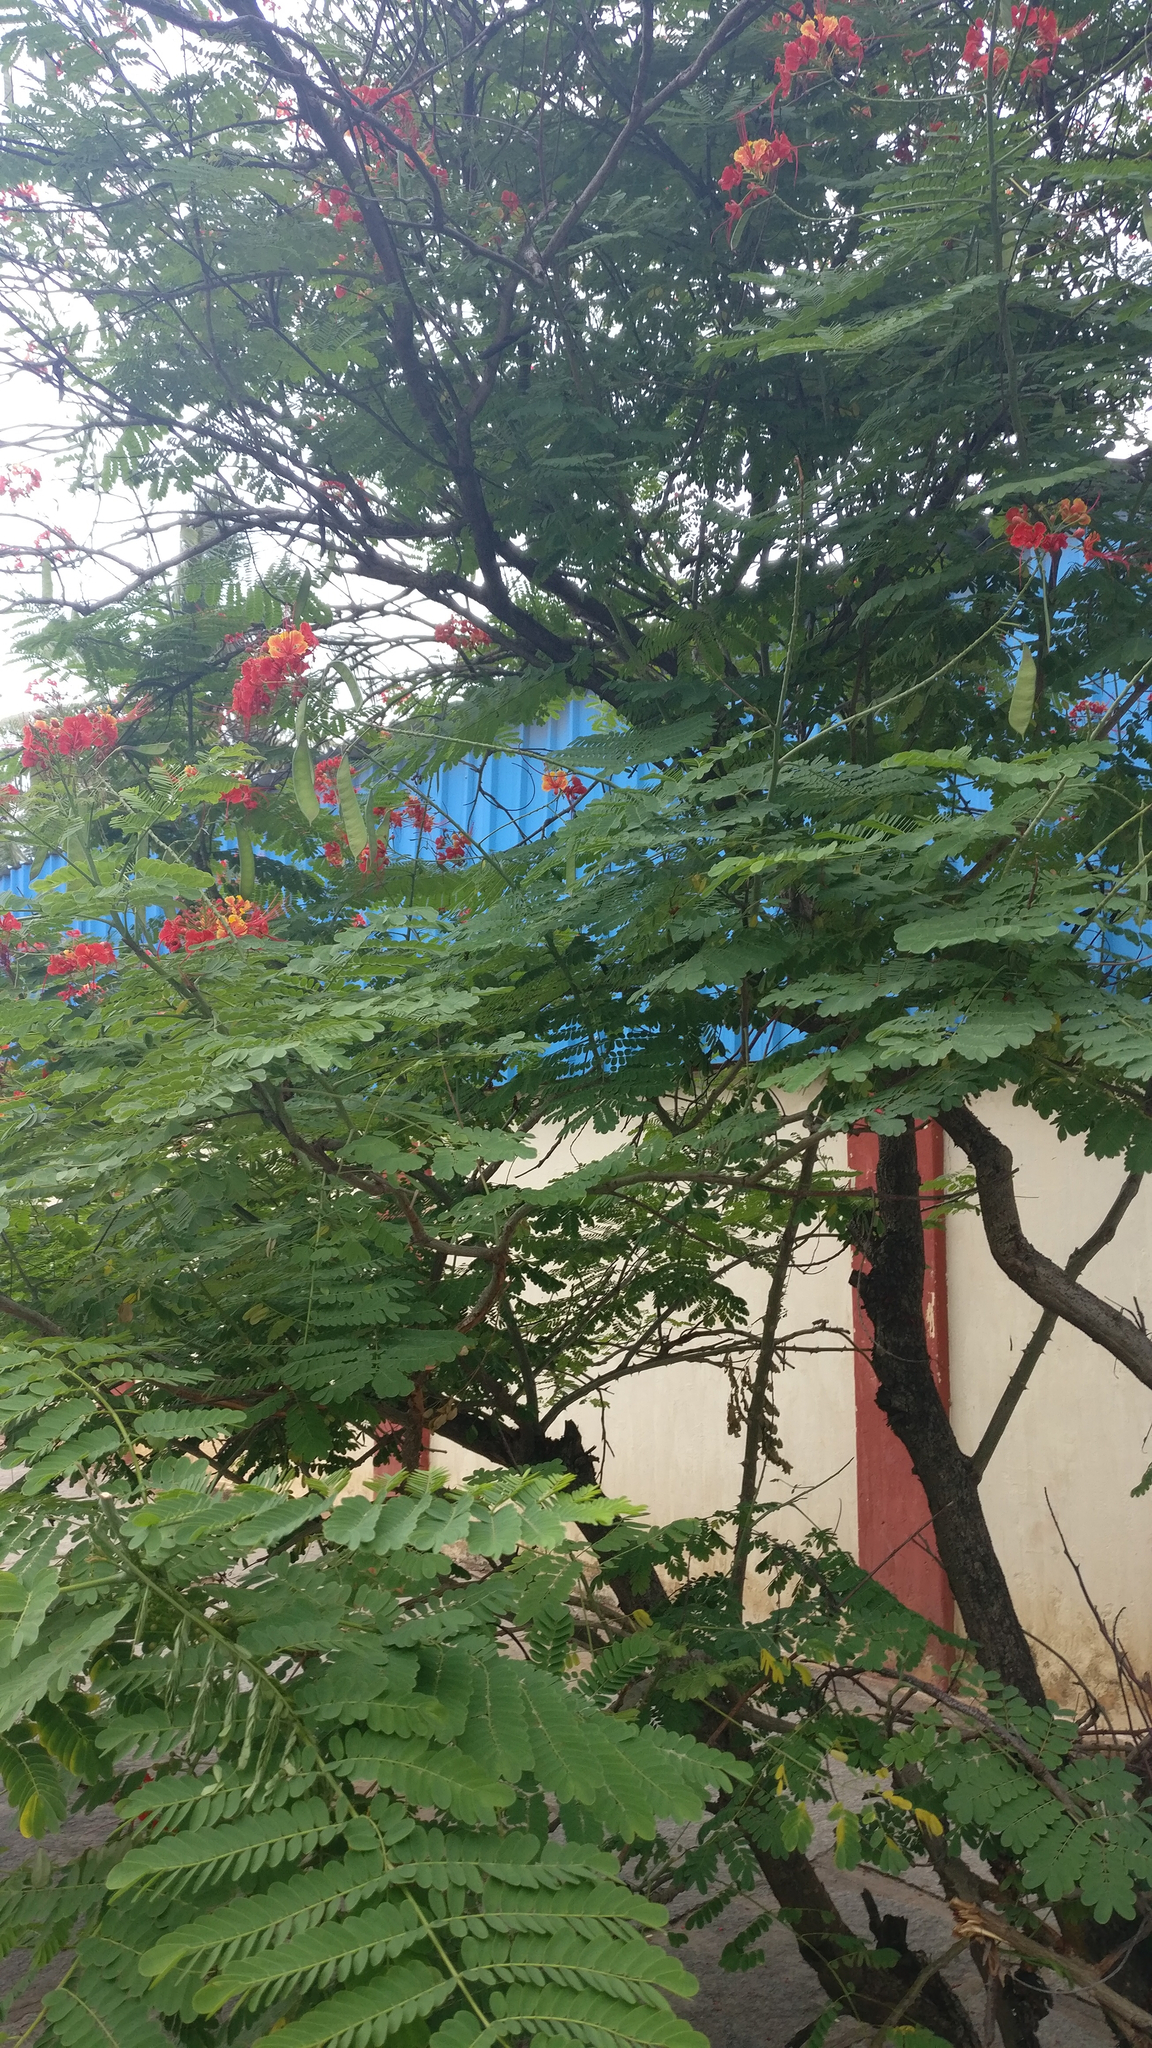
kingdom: Plantae
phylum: Tracheophyta
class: Magnoliopsida
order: Fabales
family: Fabaceae
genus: Caesalpinia
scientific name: Caesalpinia pulcherrima
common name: Pride-of-barbados
